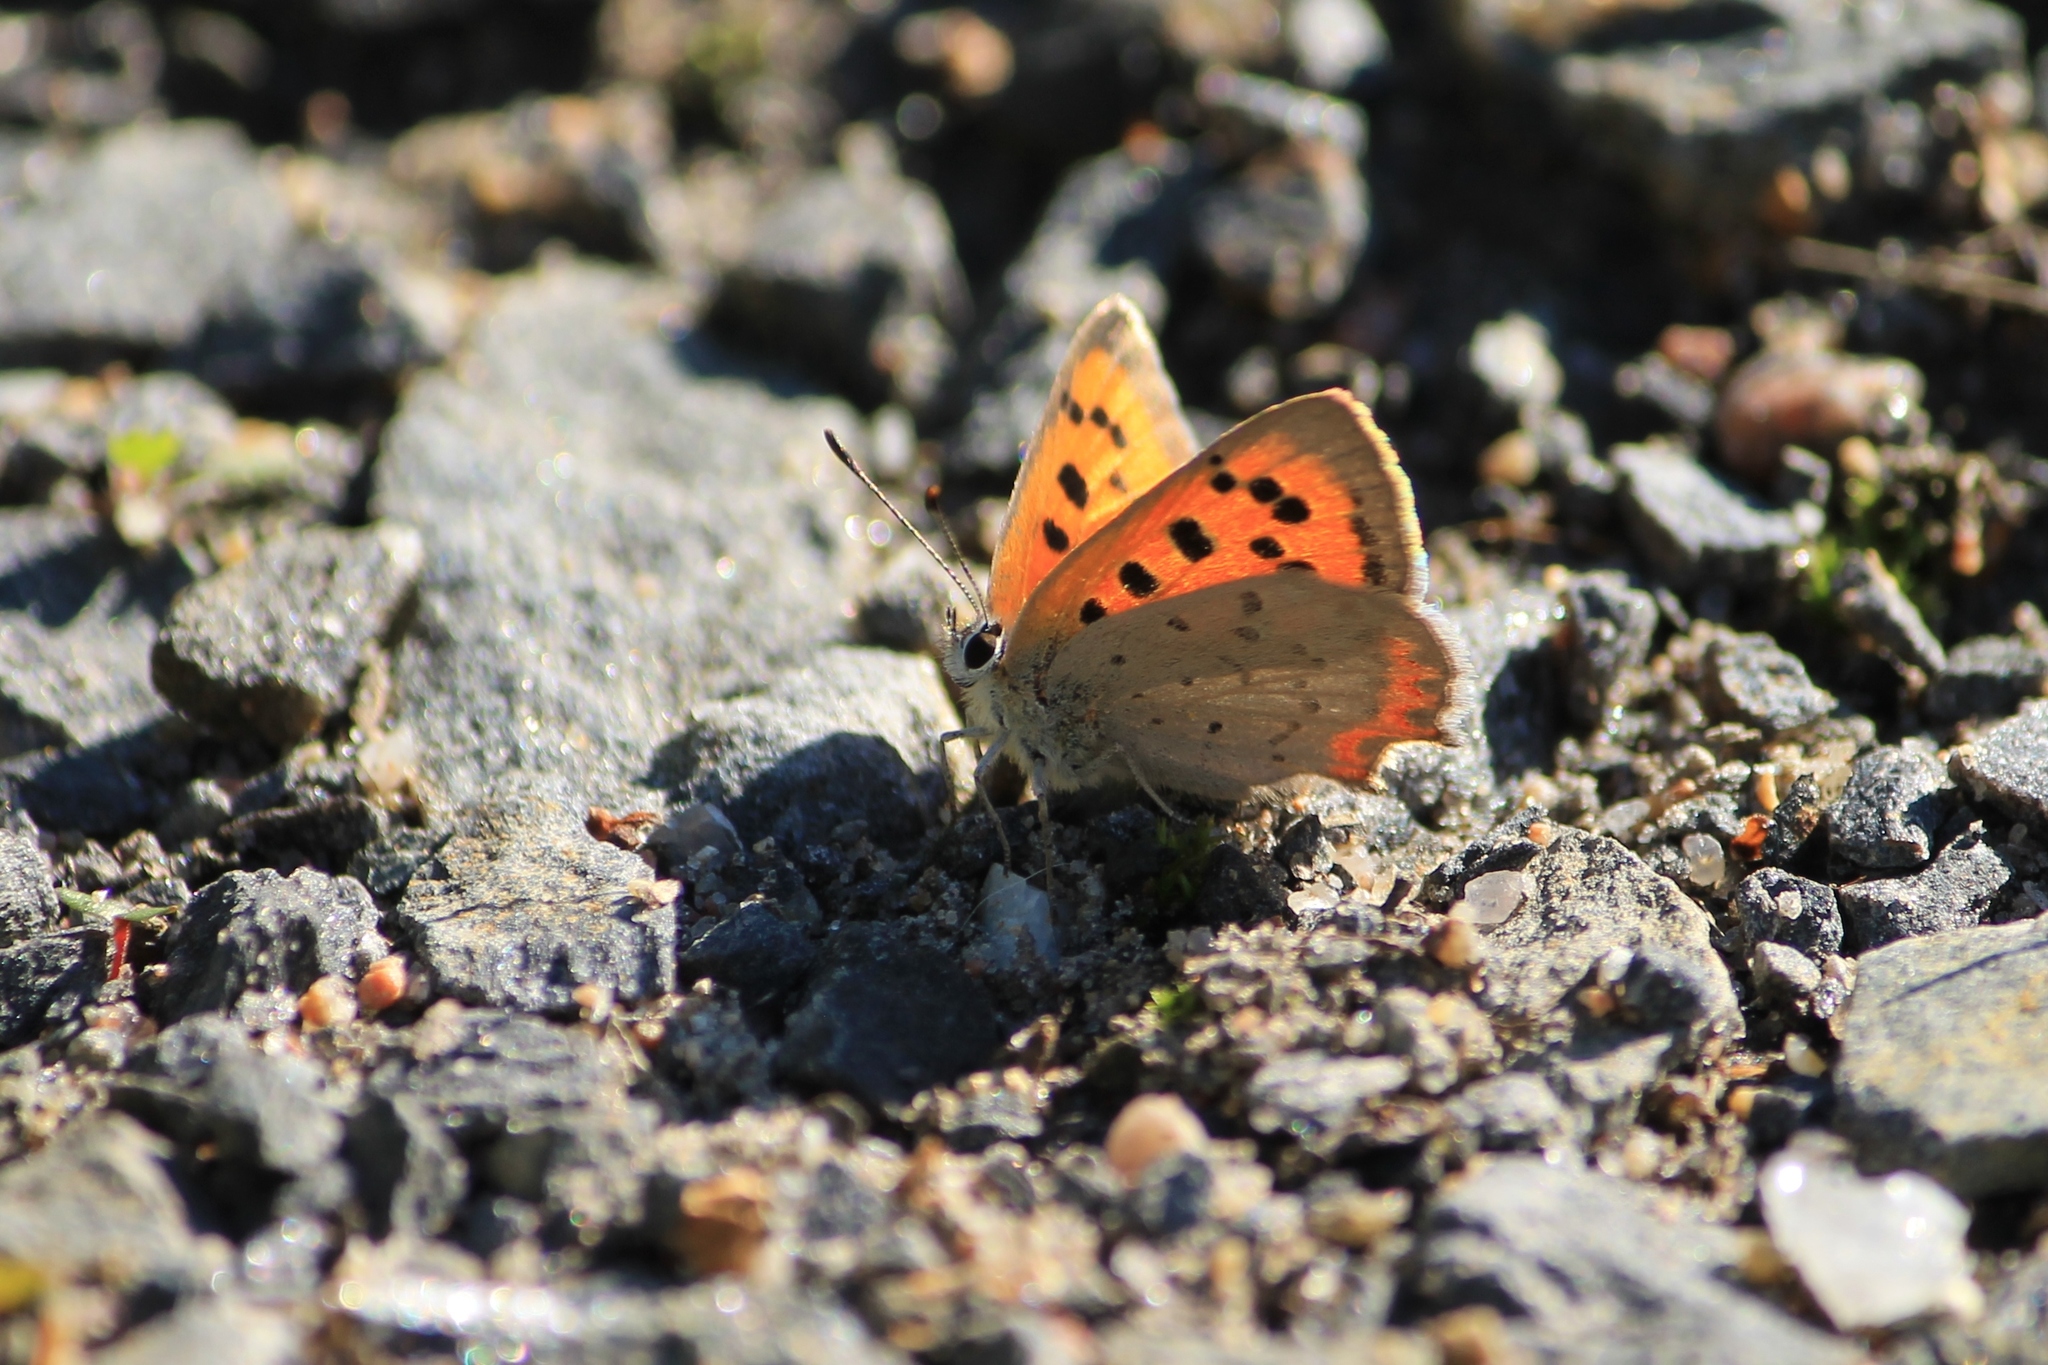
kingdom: Animalia
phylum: Arthropoda
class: Insecta
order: Lepidoptera
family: Lycaenidae
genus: Lycaena
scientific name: Lycaena phlaeas
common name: Small copper
